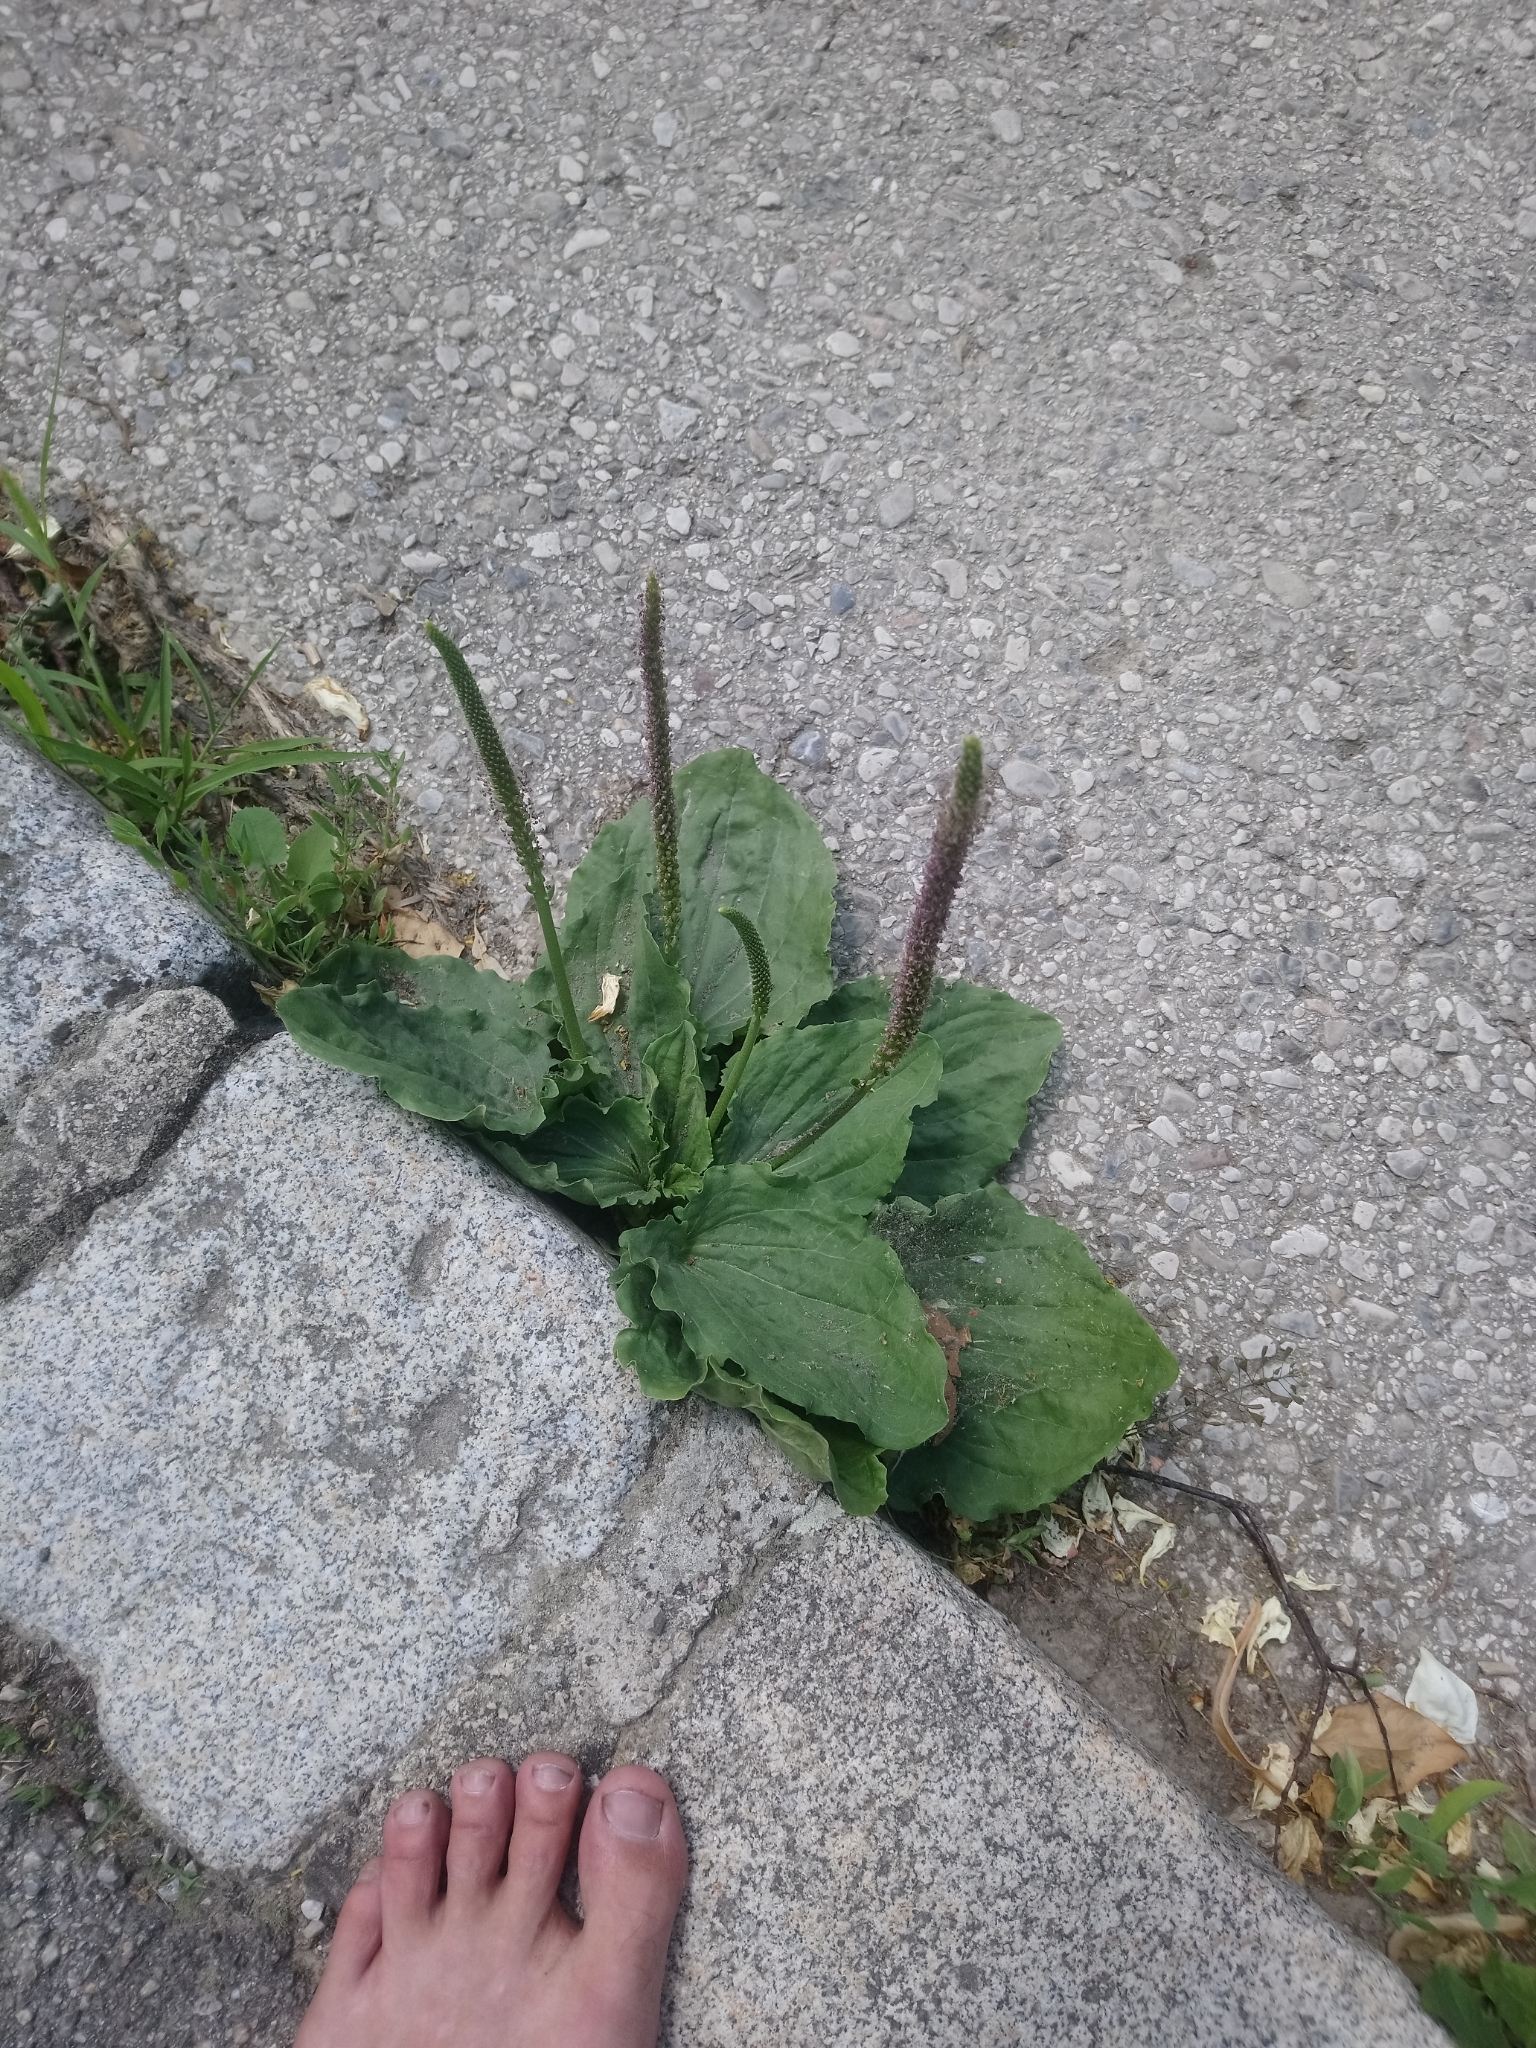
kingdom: Plantae
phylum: Tracheophyta
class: Magnoliopsida
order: Lamiales
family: Plantaginaceae
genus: Plantago
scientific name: Plantago major
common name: Common plantain
